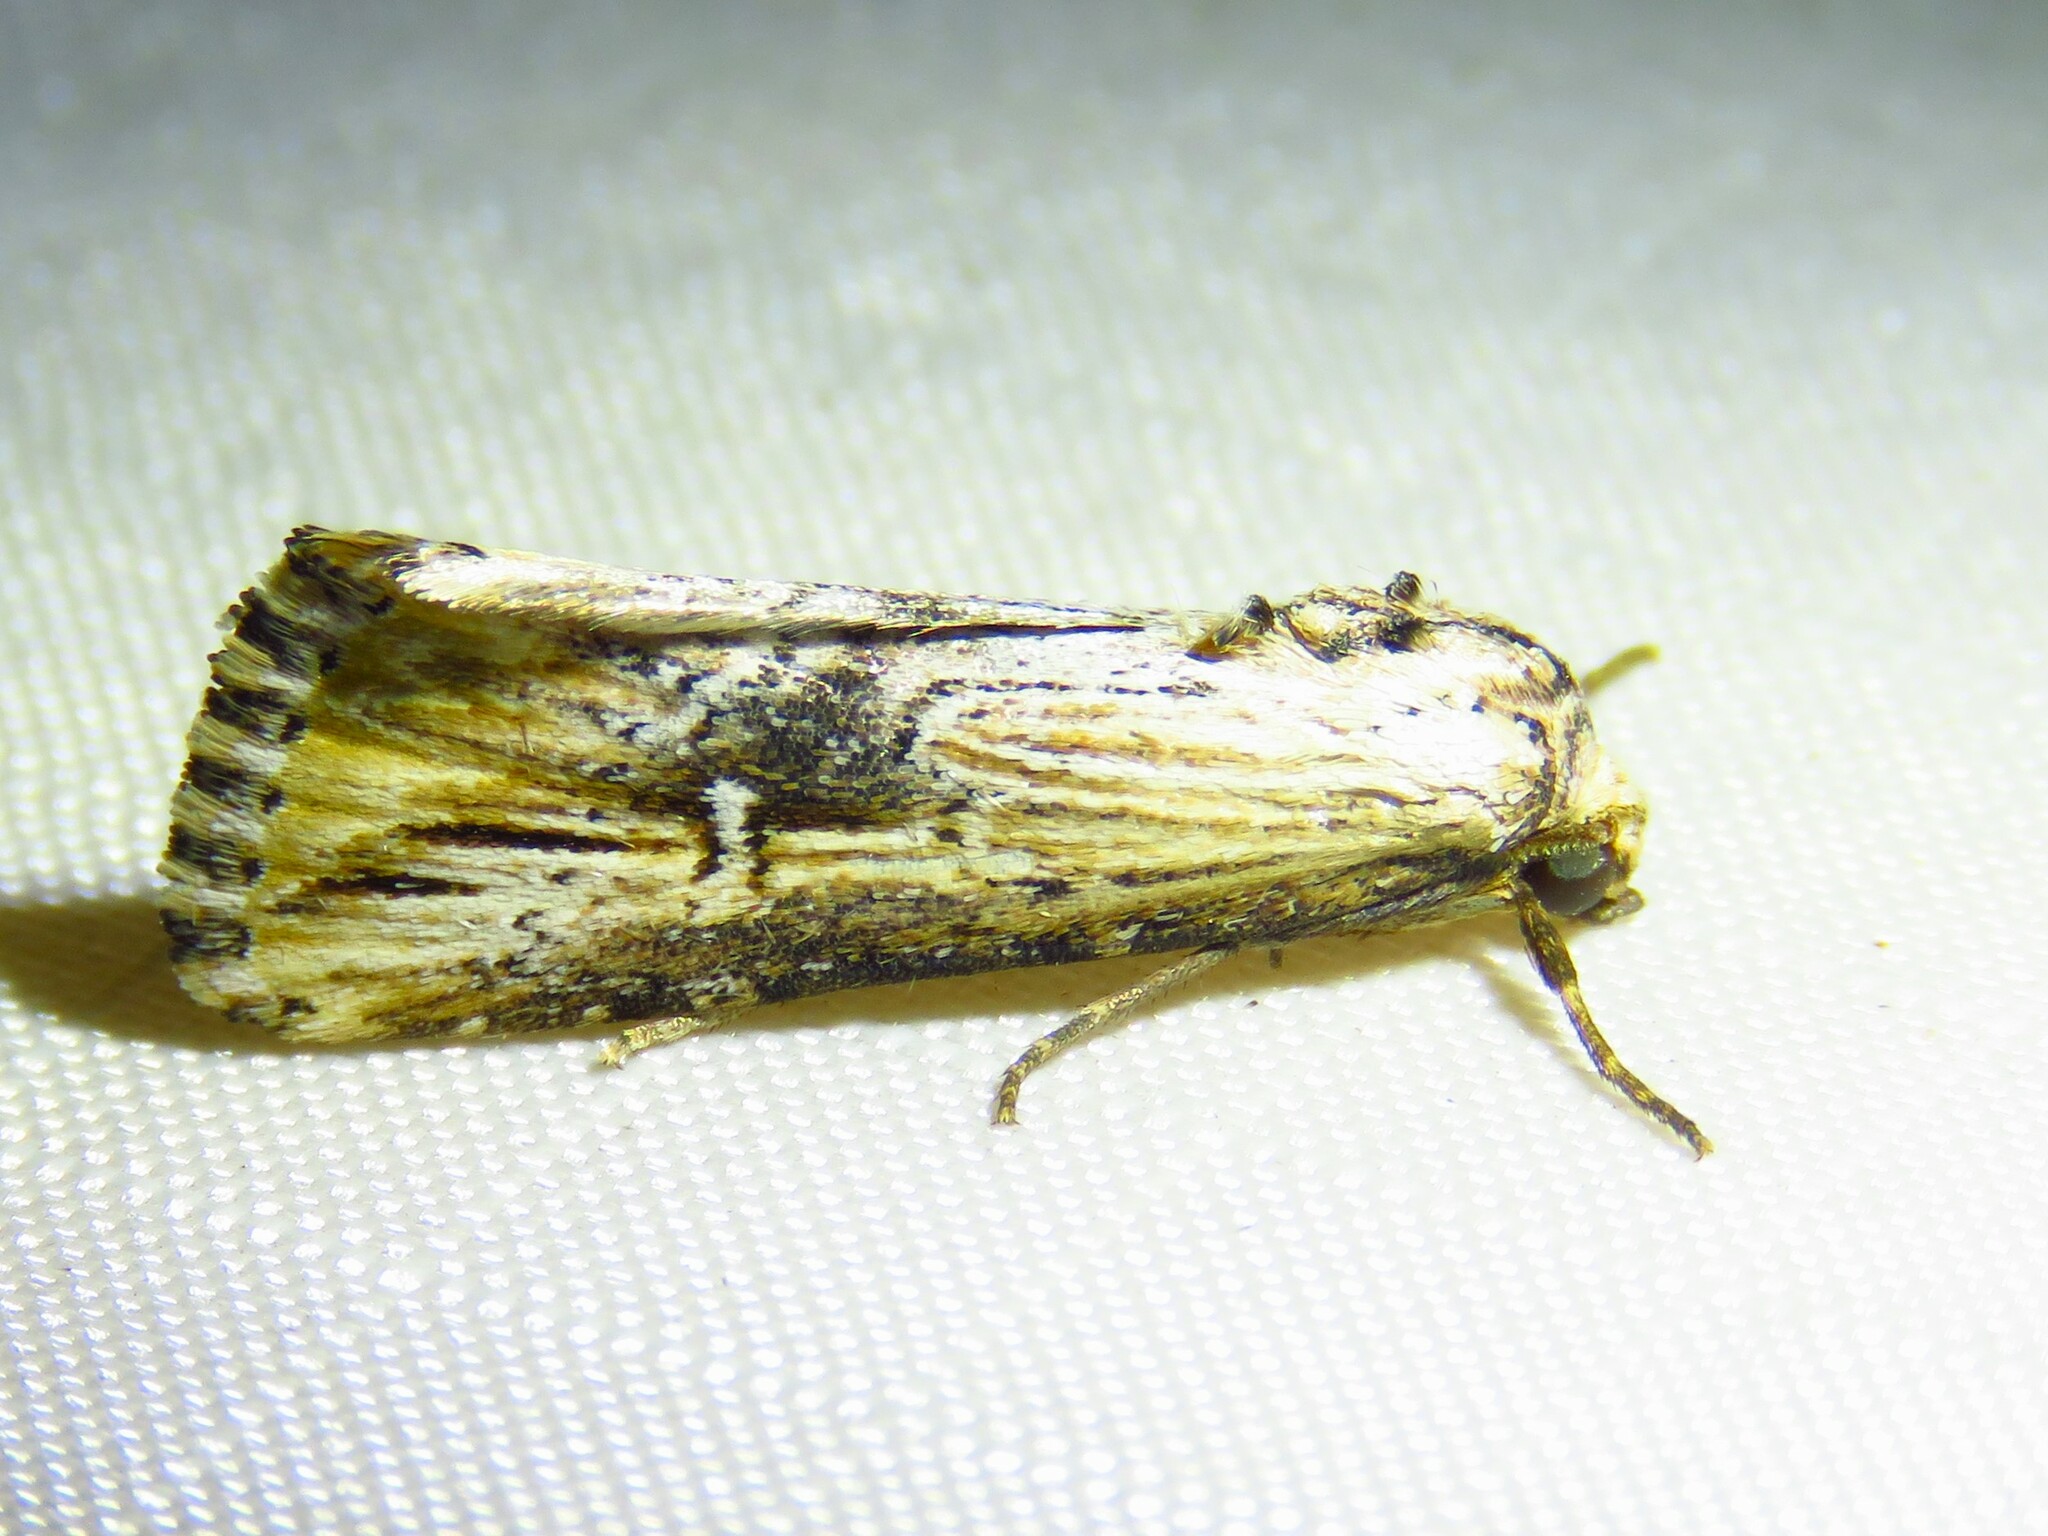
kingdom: Animalia
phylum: Arthropoda
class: Insecta
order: Lepidoptera
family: Noctuidae
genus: Crambodes
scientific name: Crambodes talidiformis
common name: Verbena moth
